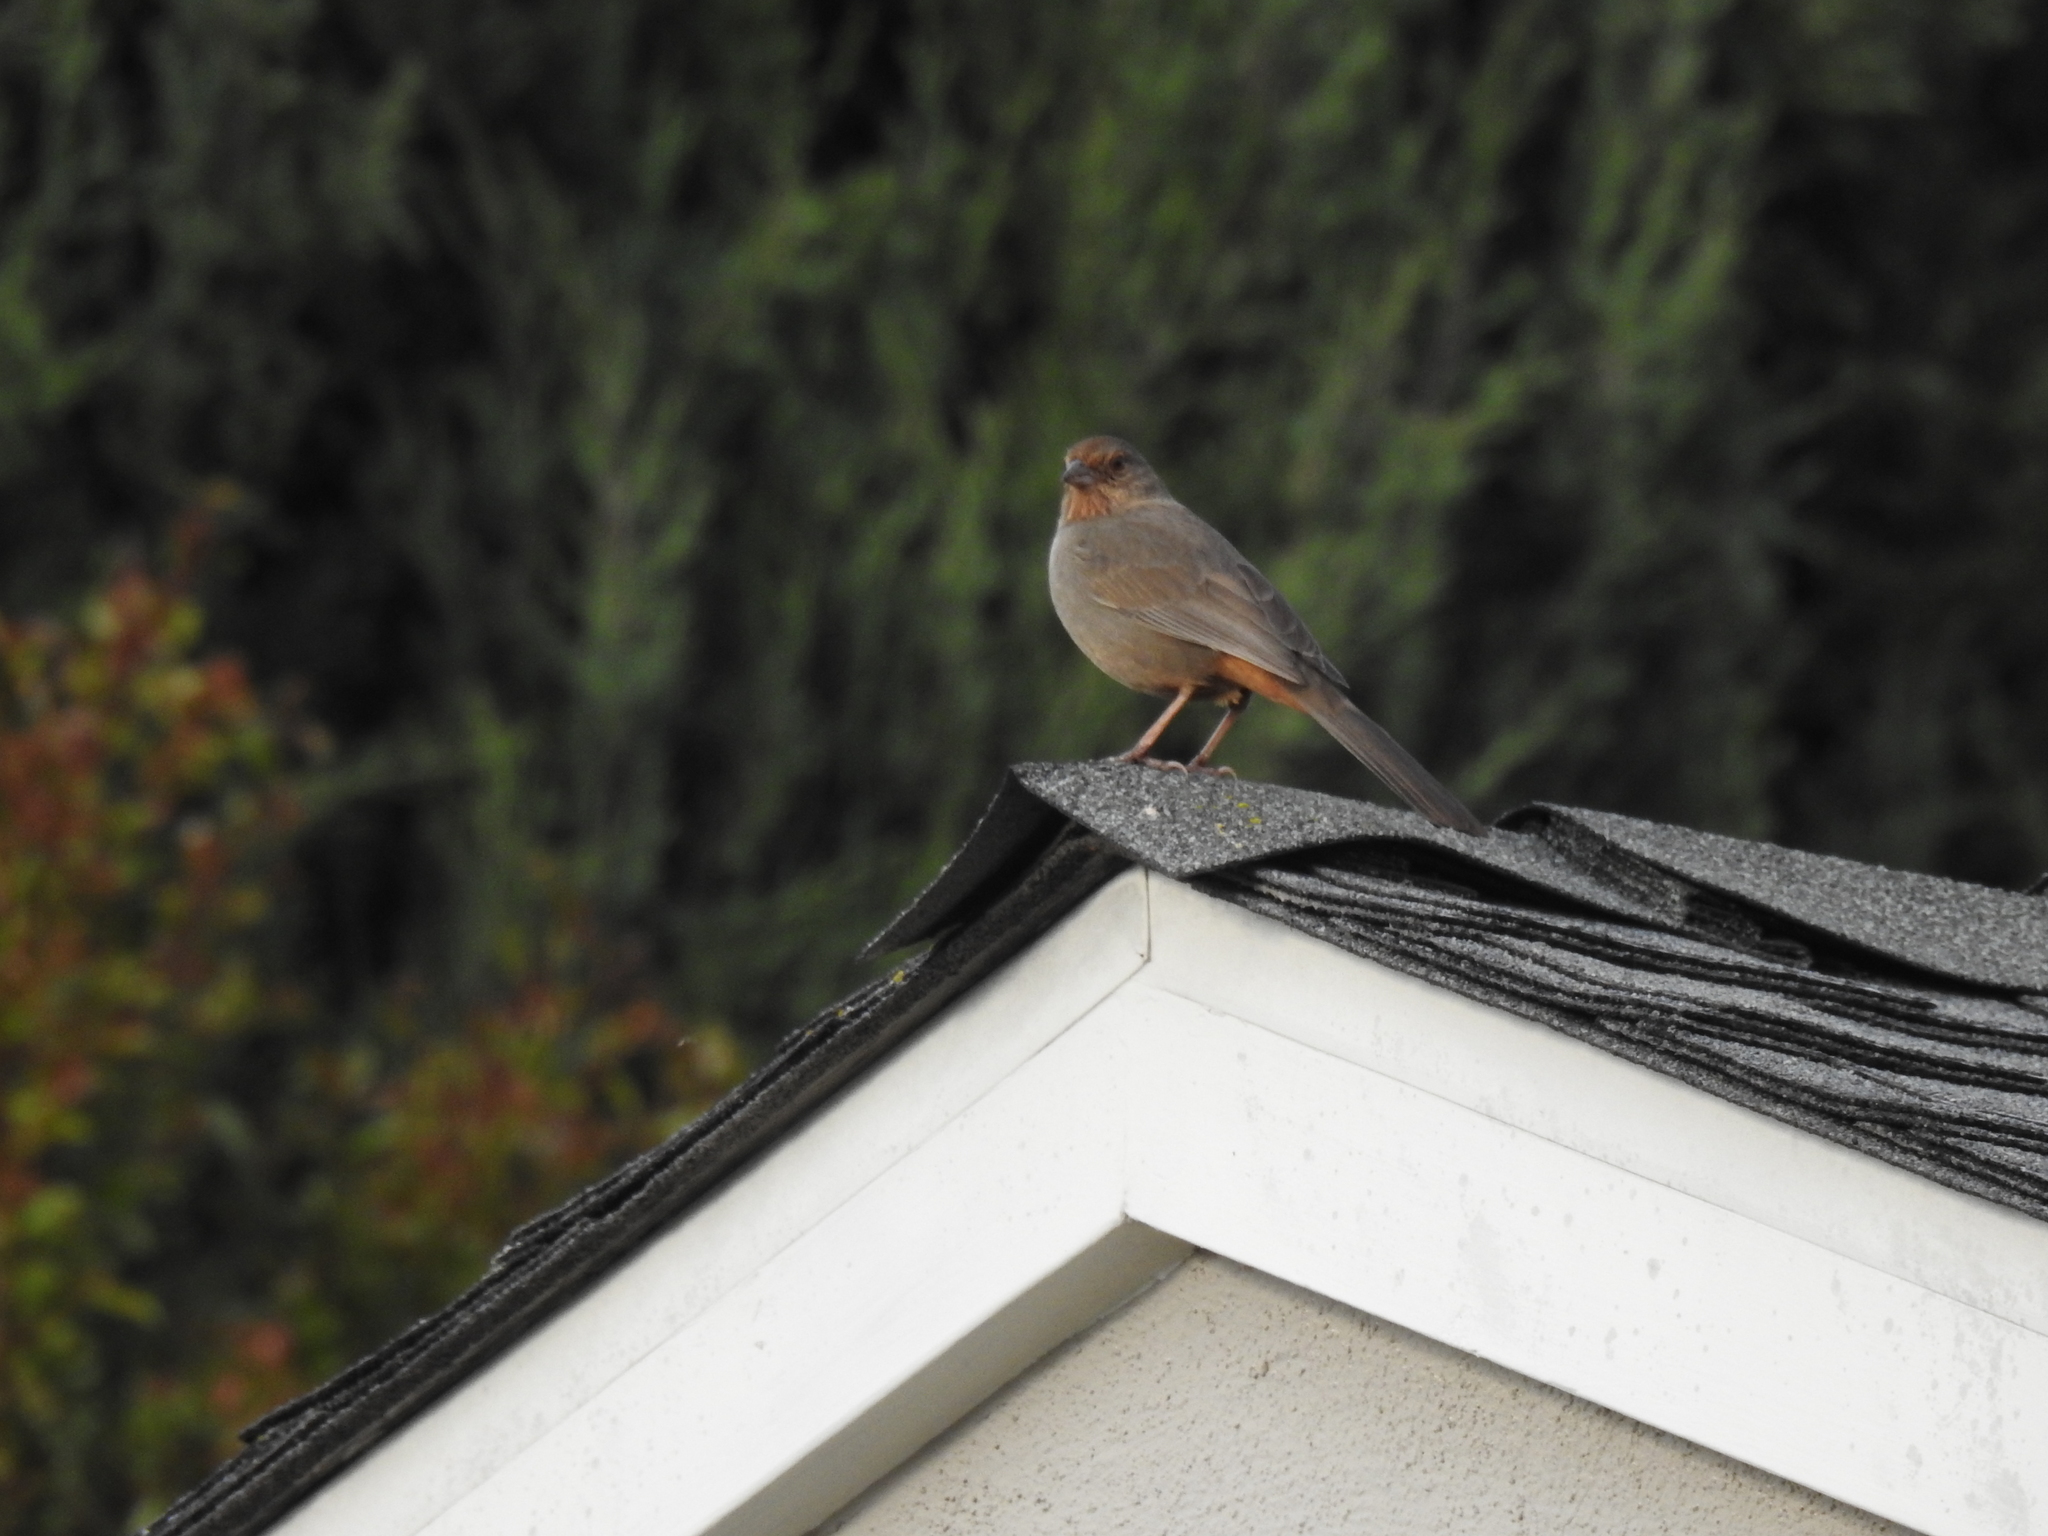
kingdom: Animalia
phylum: Chordata
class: Aves
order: Passeriformes
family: Passerellidae
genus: Melozone
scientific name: Melozone crissalis
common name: California towhee
